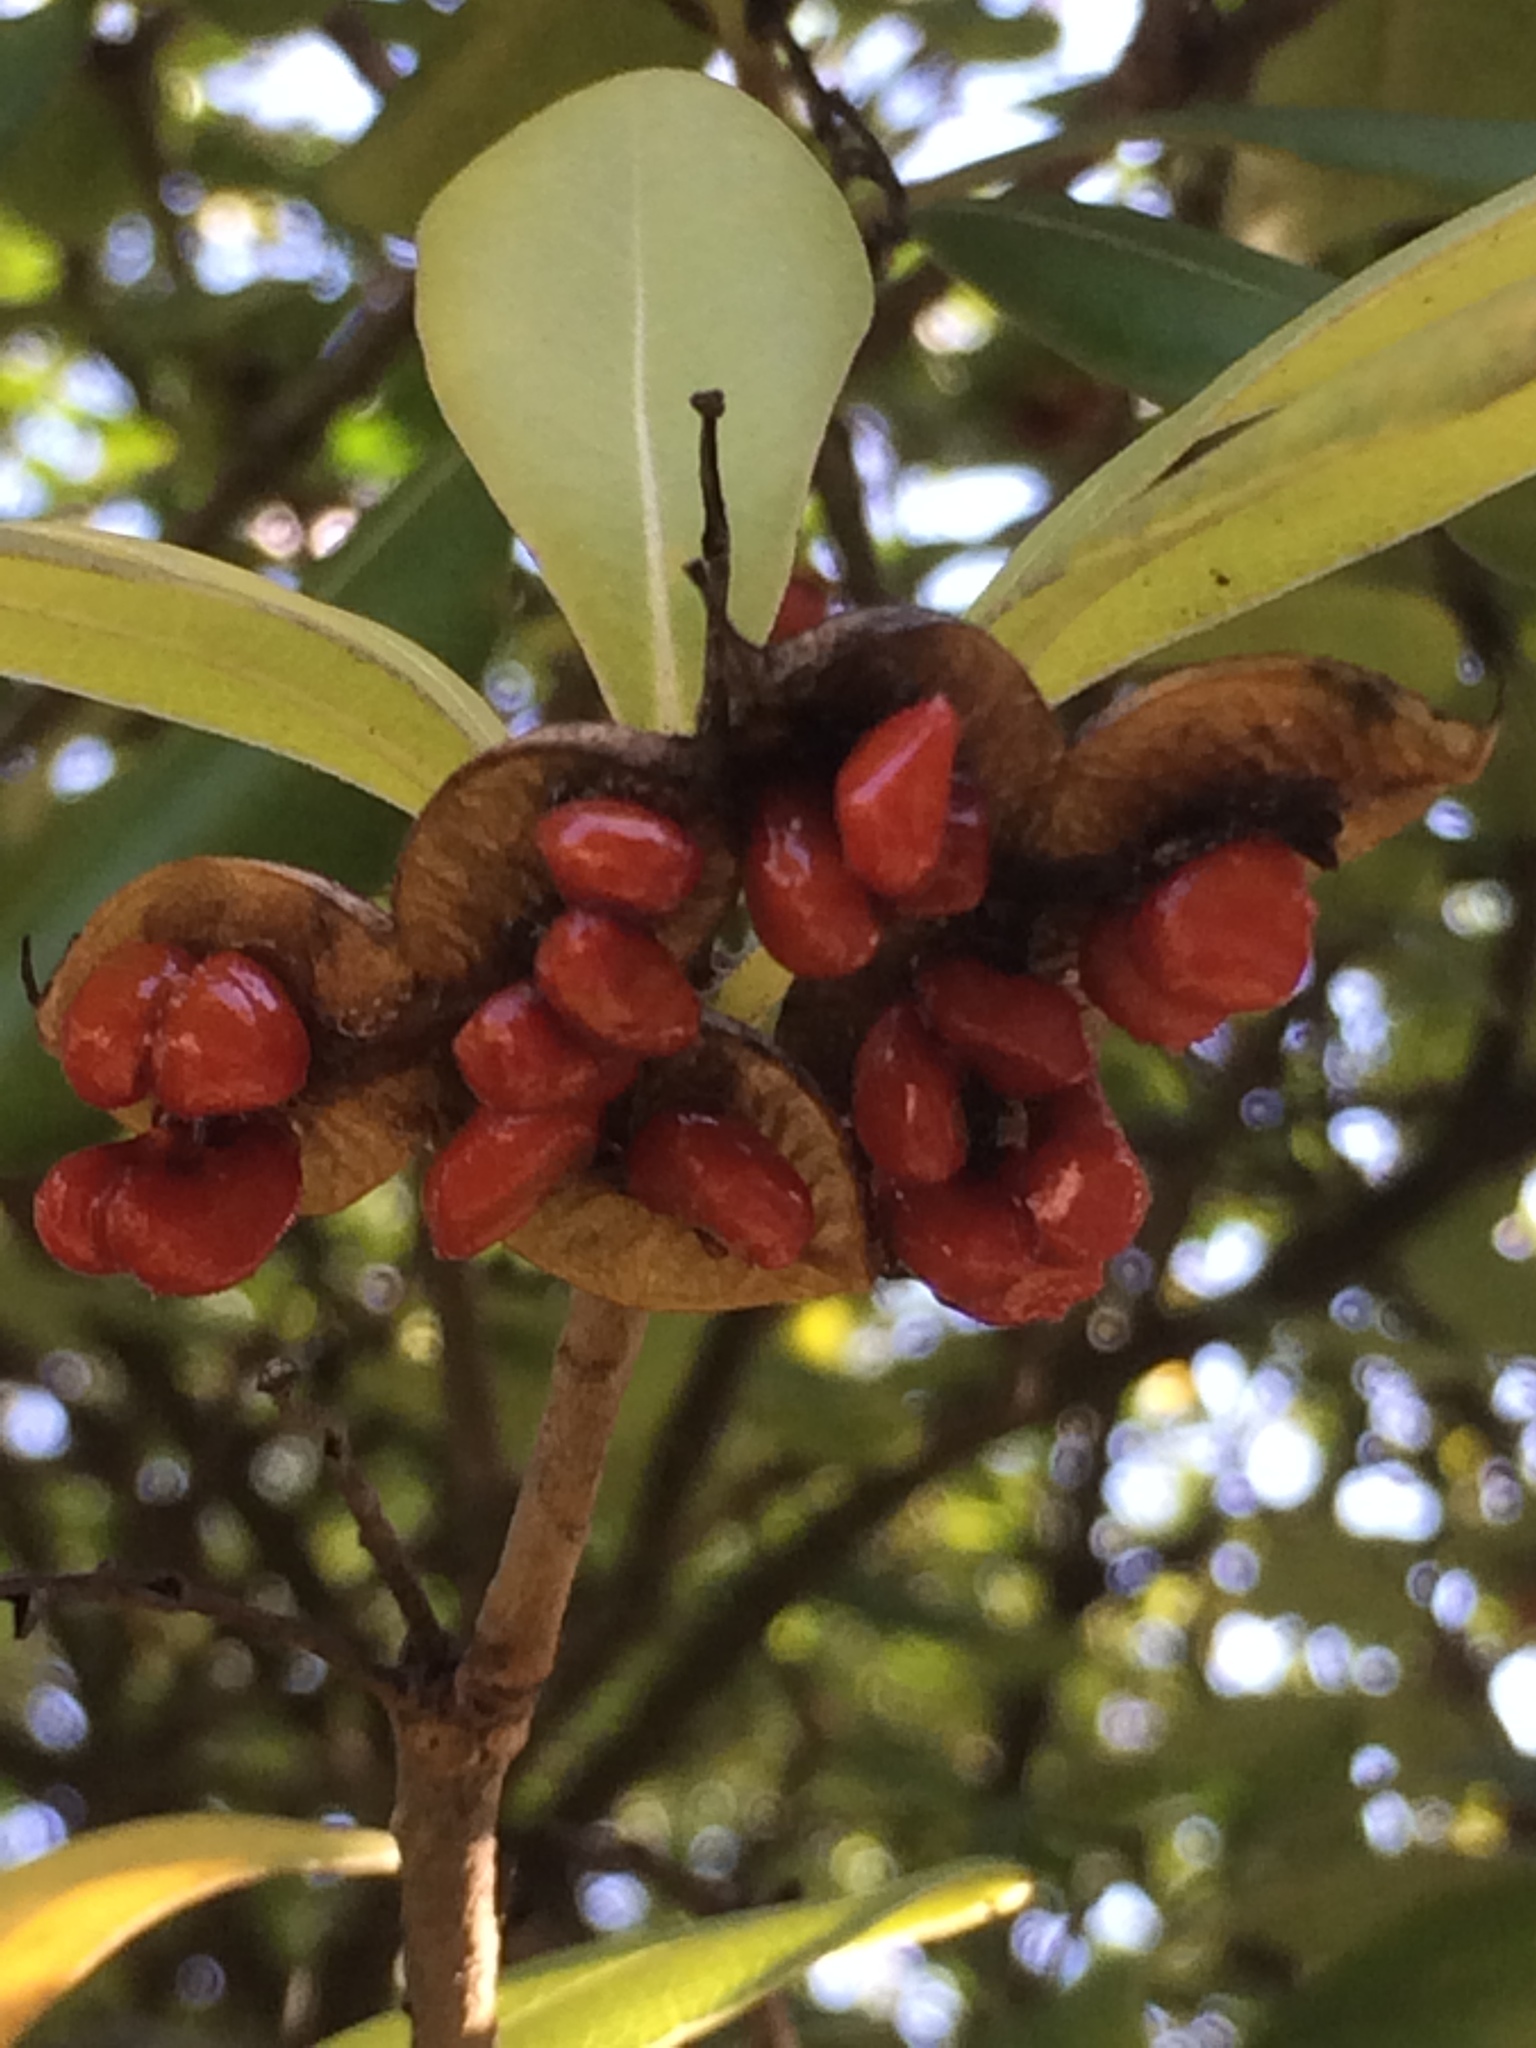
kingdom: Plantae
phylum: Tracheophyta
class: Magnoliopsida
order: Apiales
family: Pittosporaceae
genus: Pittosporum
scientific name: Pittosporum tobira
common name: Japanese cheesewood
